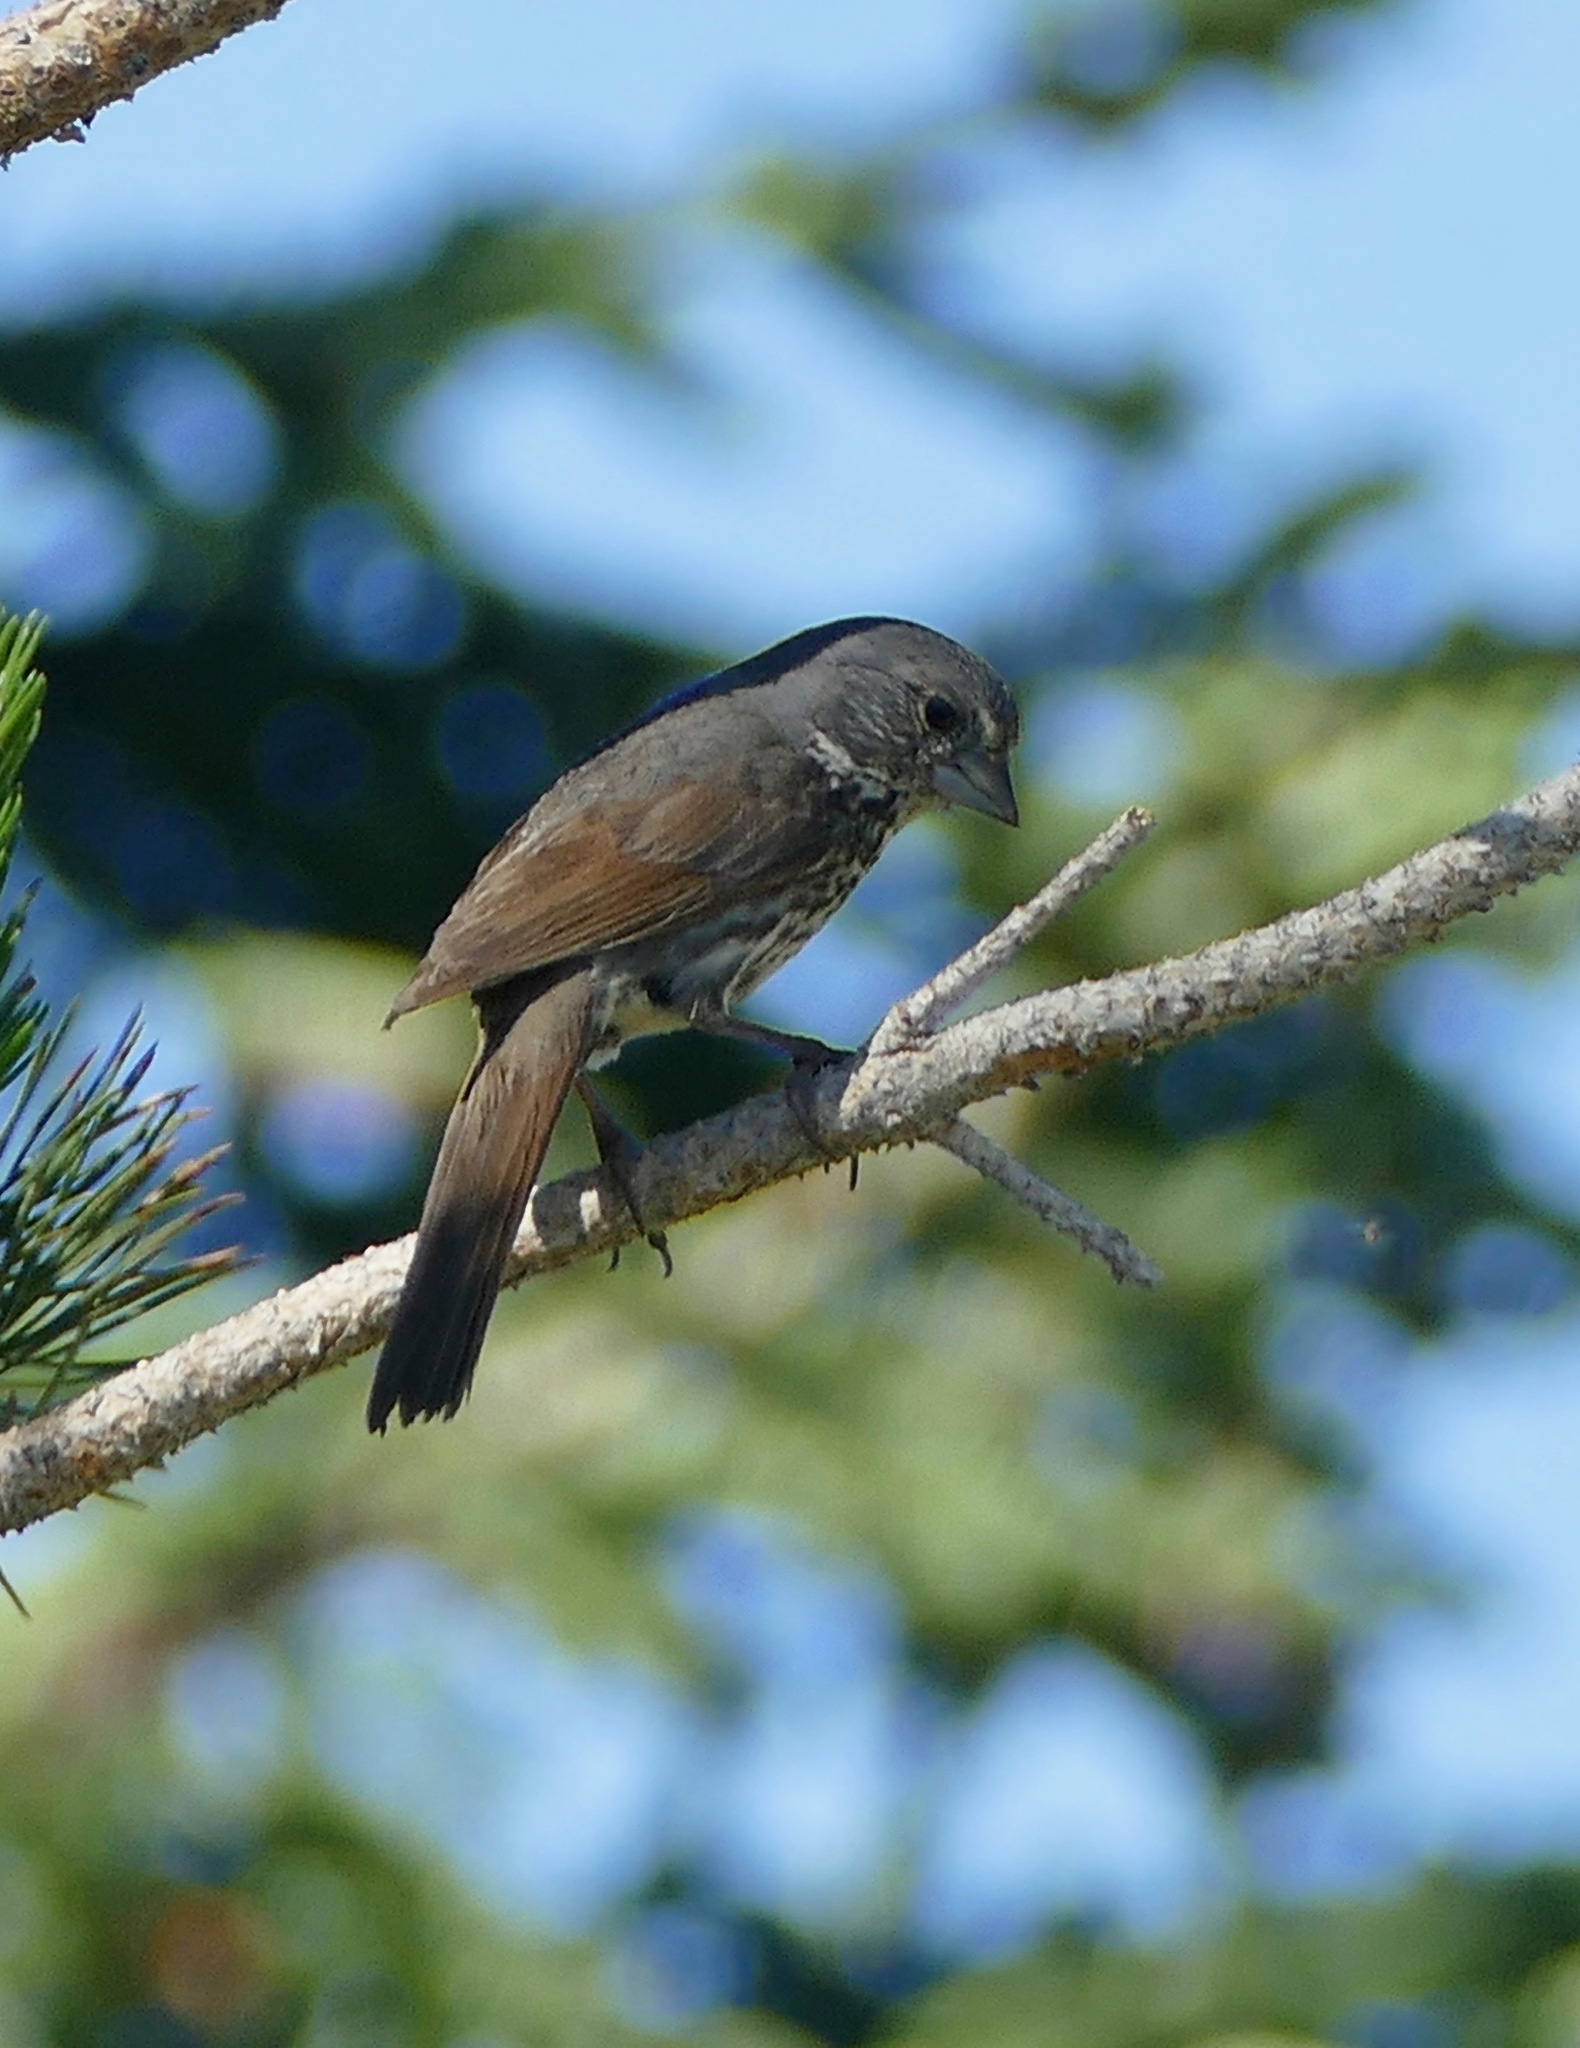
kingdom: Animalia
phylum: Chordata
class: Aves
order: Passeriformes
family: Passerellidae
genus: Passerella
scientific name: Passerella iliaca
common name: Fox sparrow
